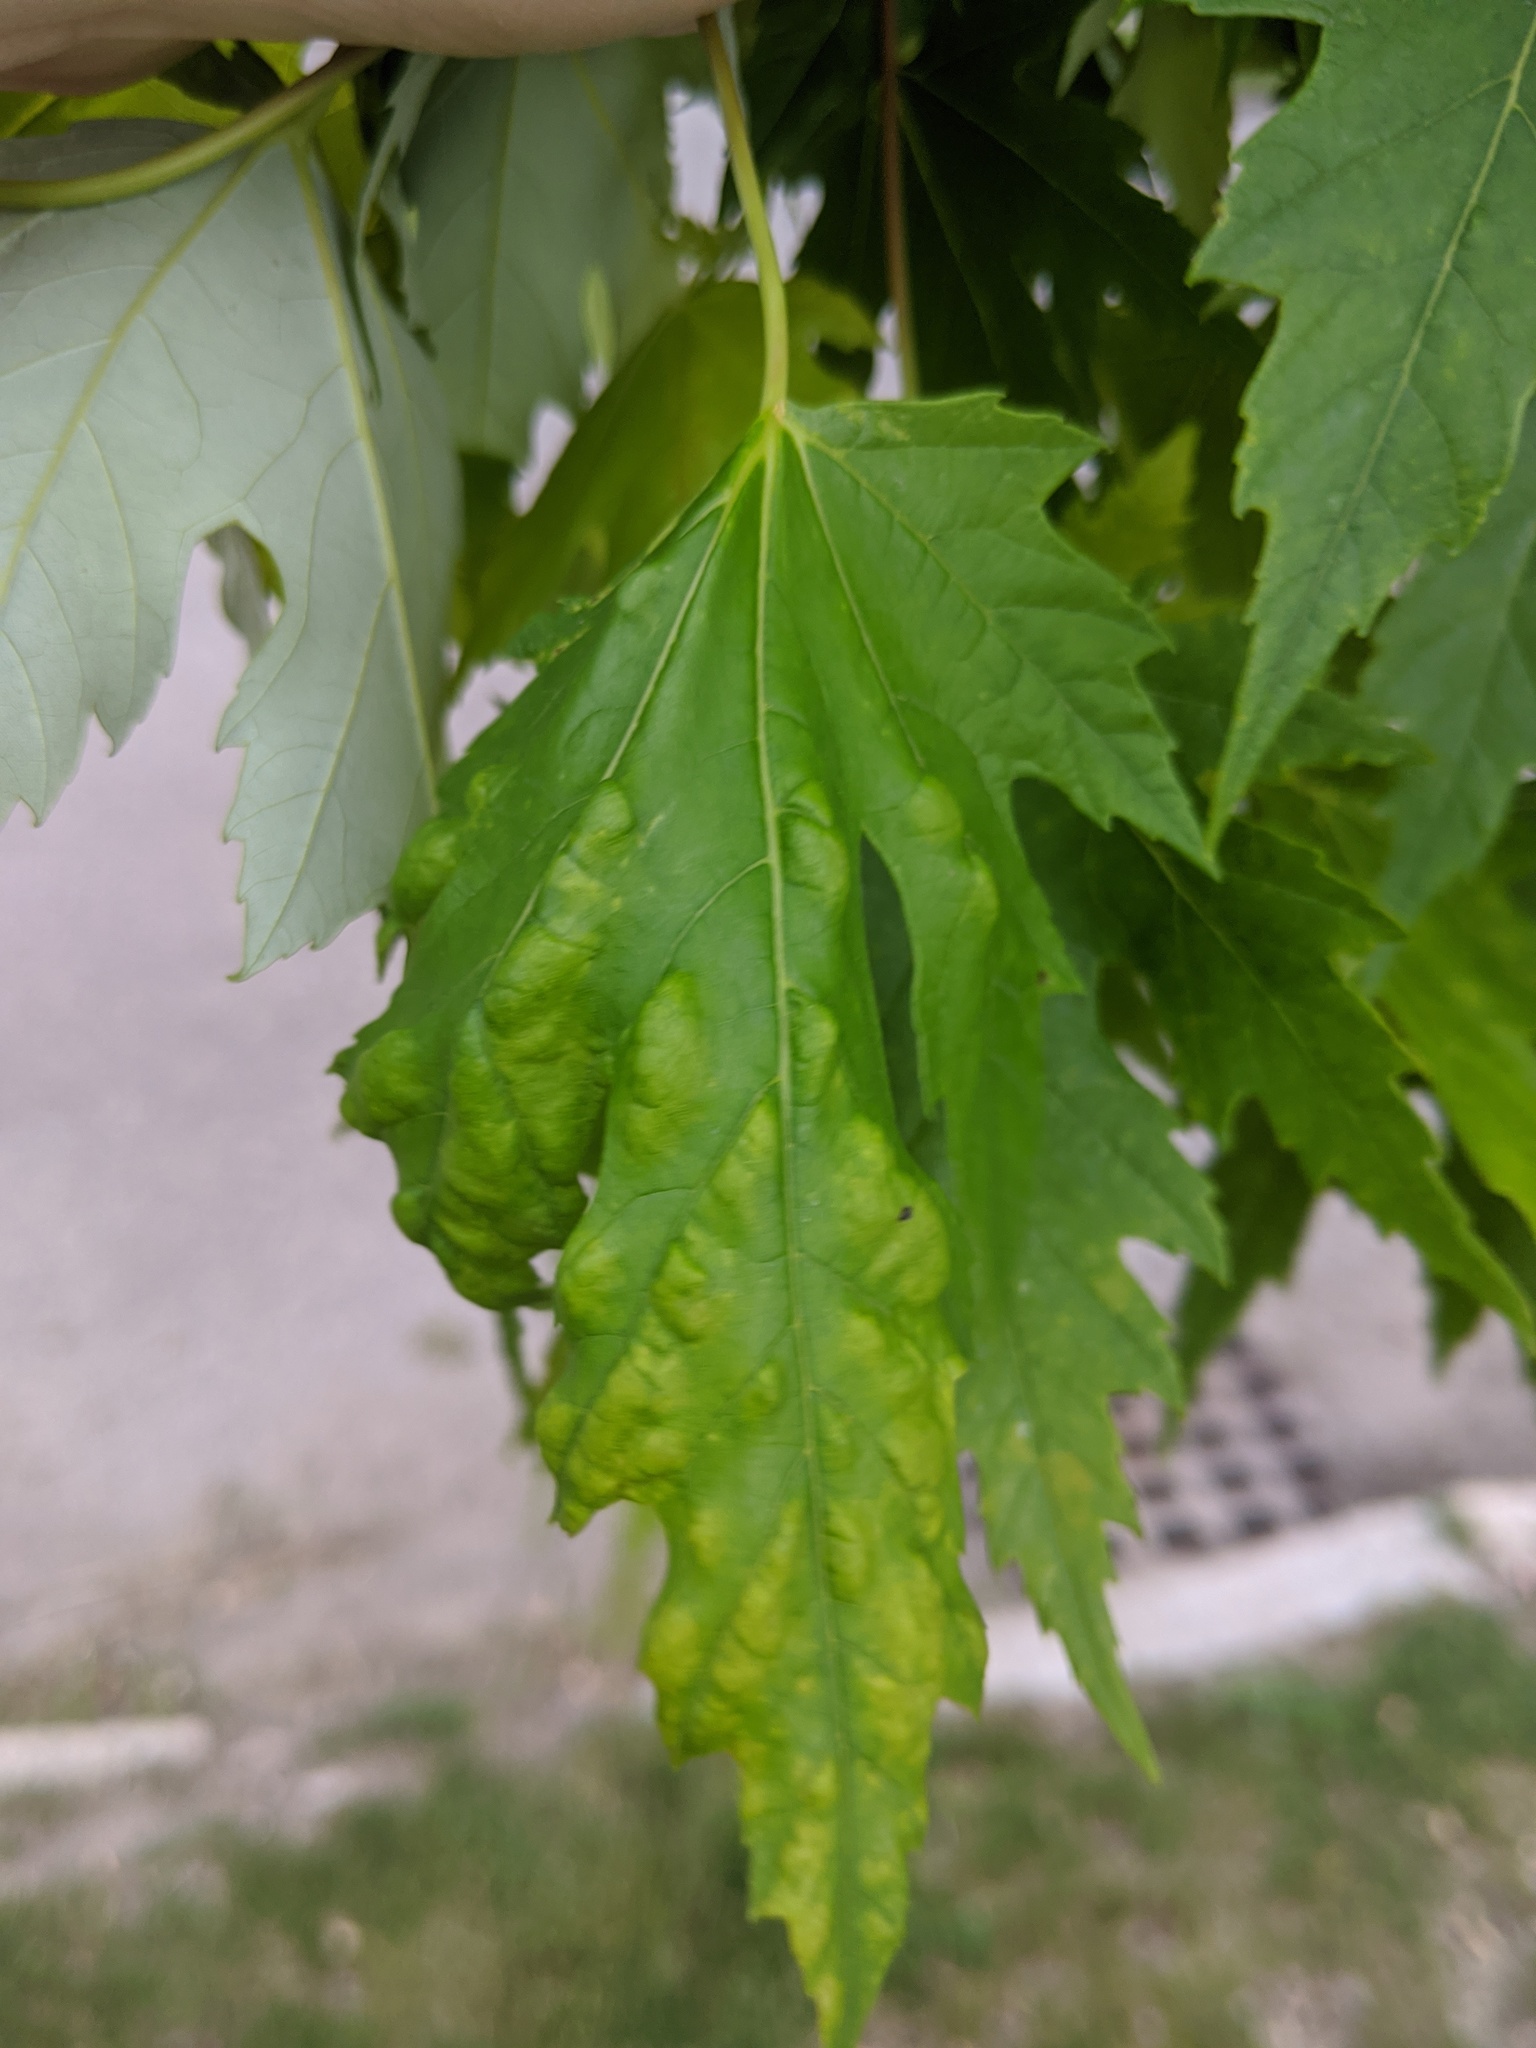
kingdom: Fungi
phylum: Ascomycota
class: Taphrinomycetes
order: Taphrinales
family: Taphrinaceae
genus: Taphrina
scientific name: Taphrina carveri
